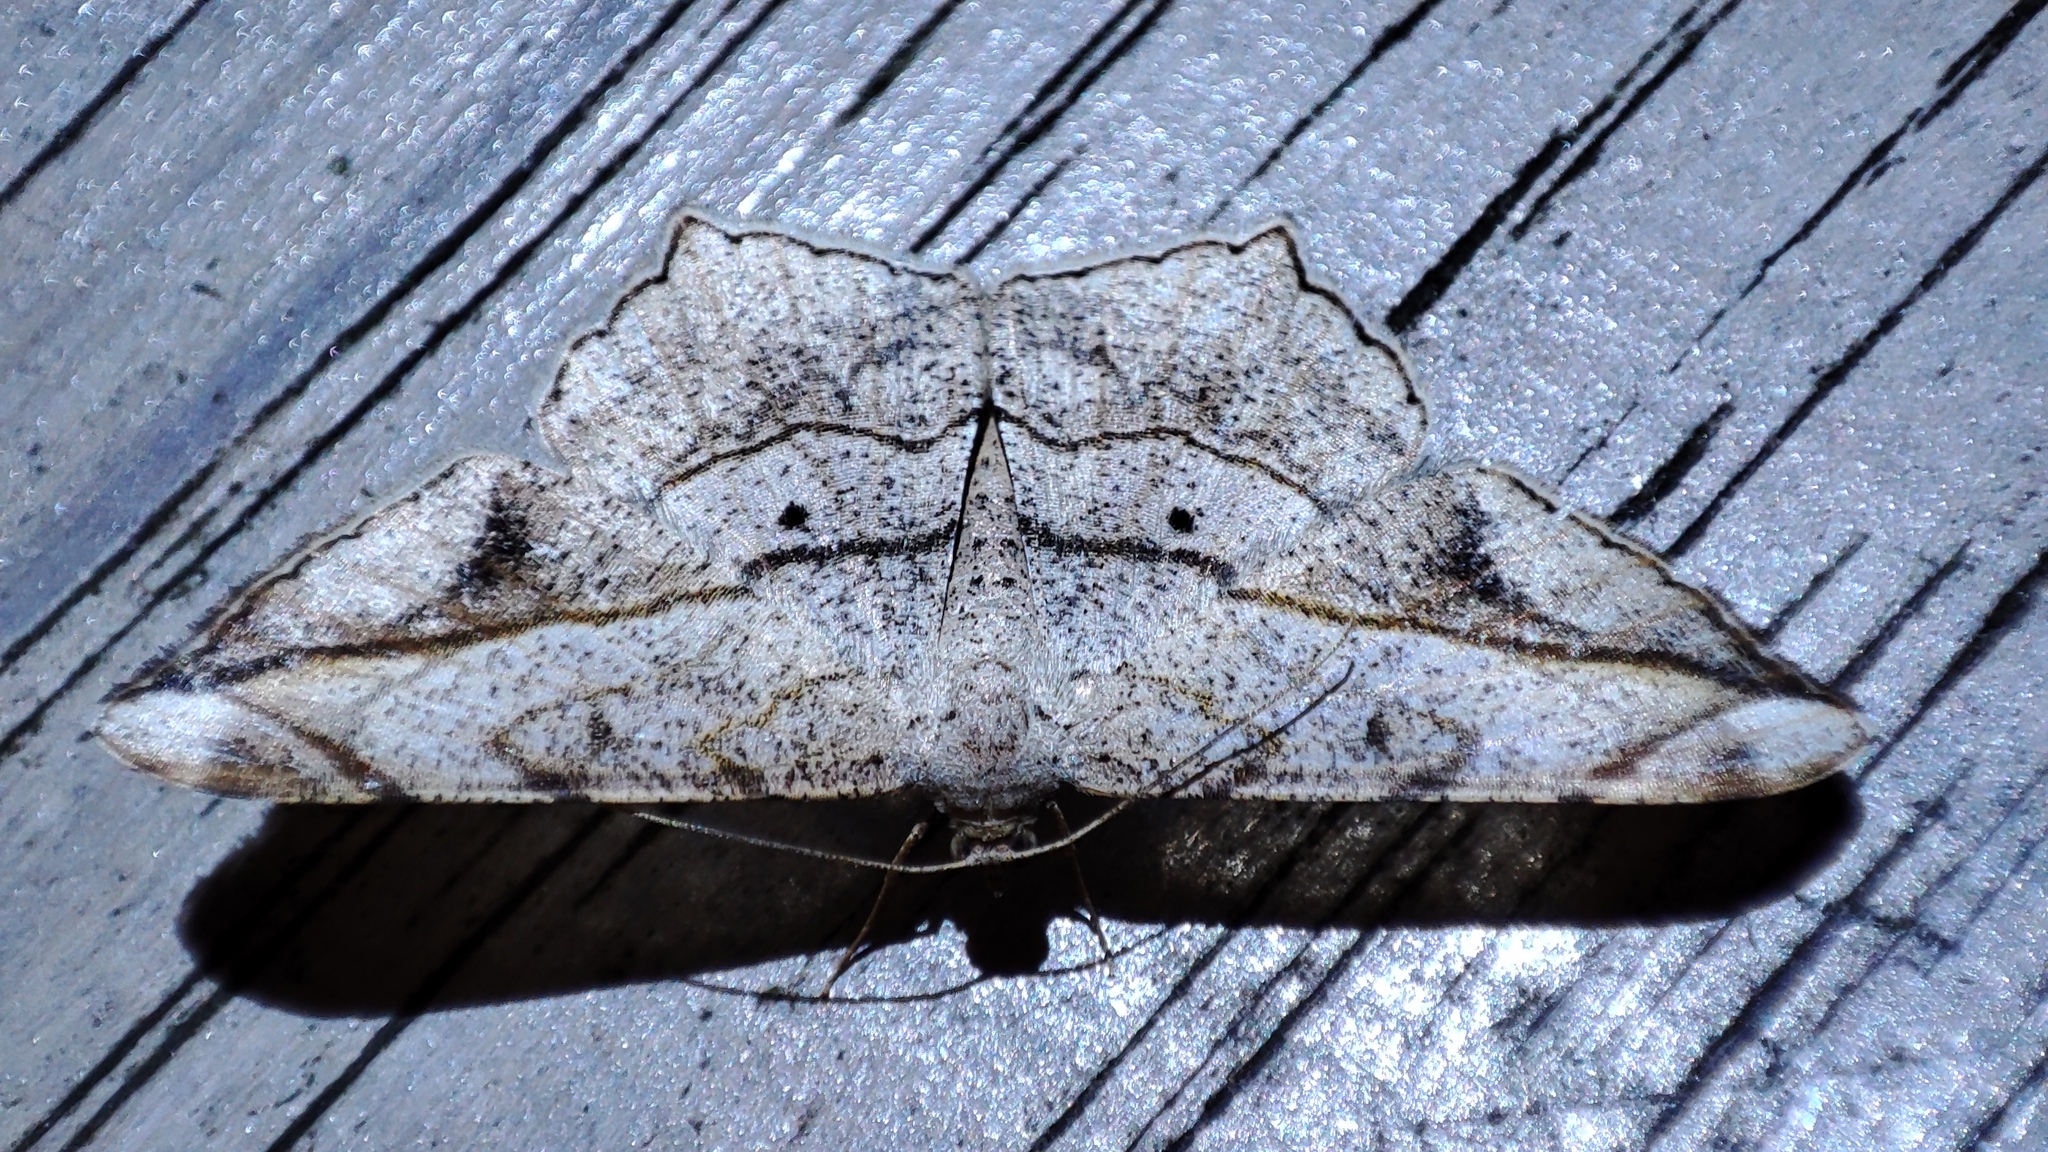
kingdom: Animalia
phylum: Arthropoda
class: Insecta
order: Lepidoptera
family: Geometridae
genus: Chiasmia
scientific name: Chiasmia simplicilinea
